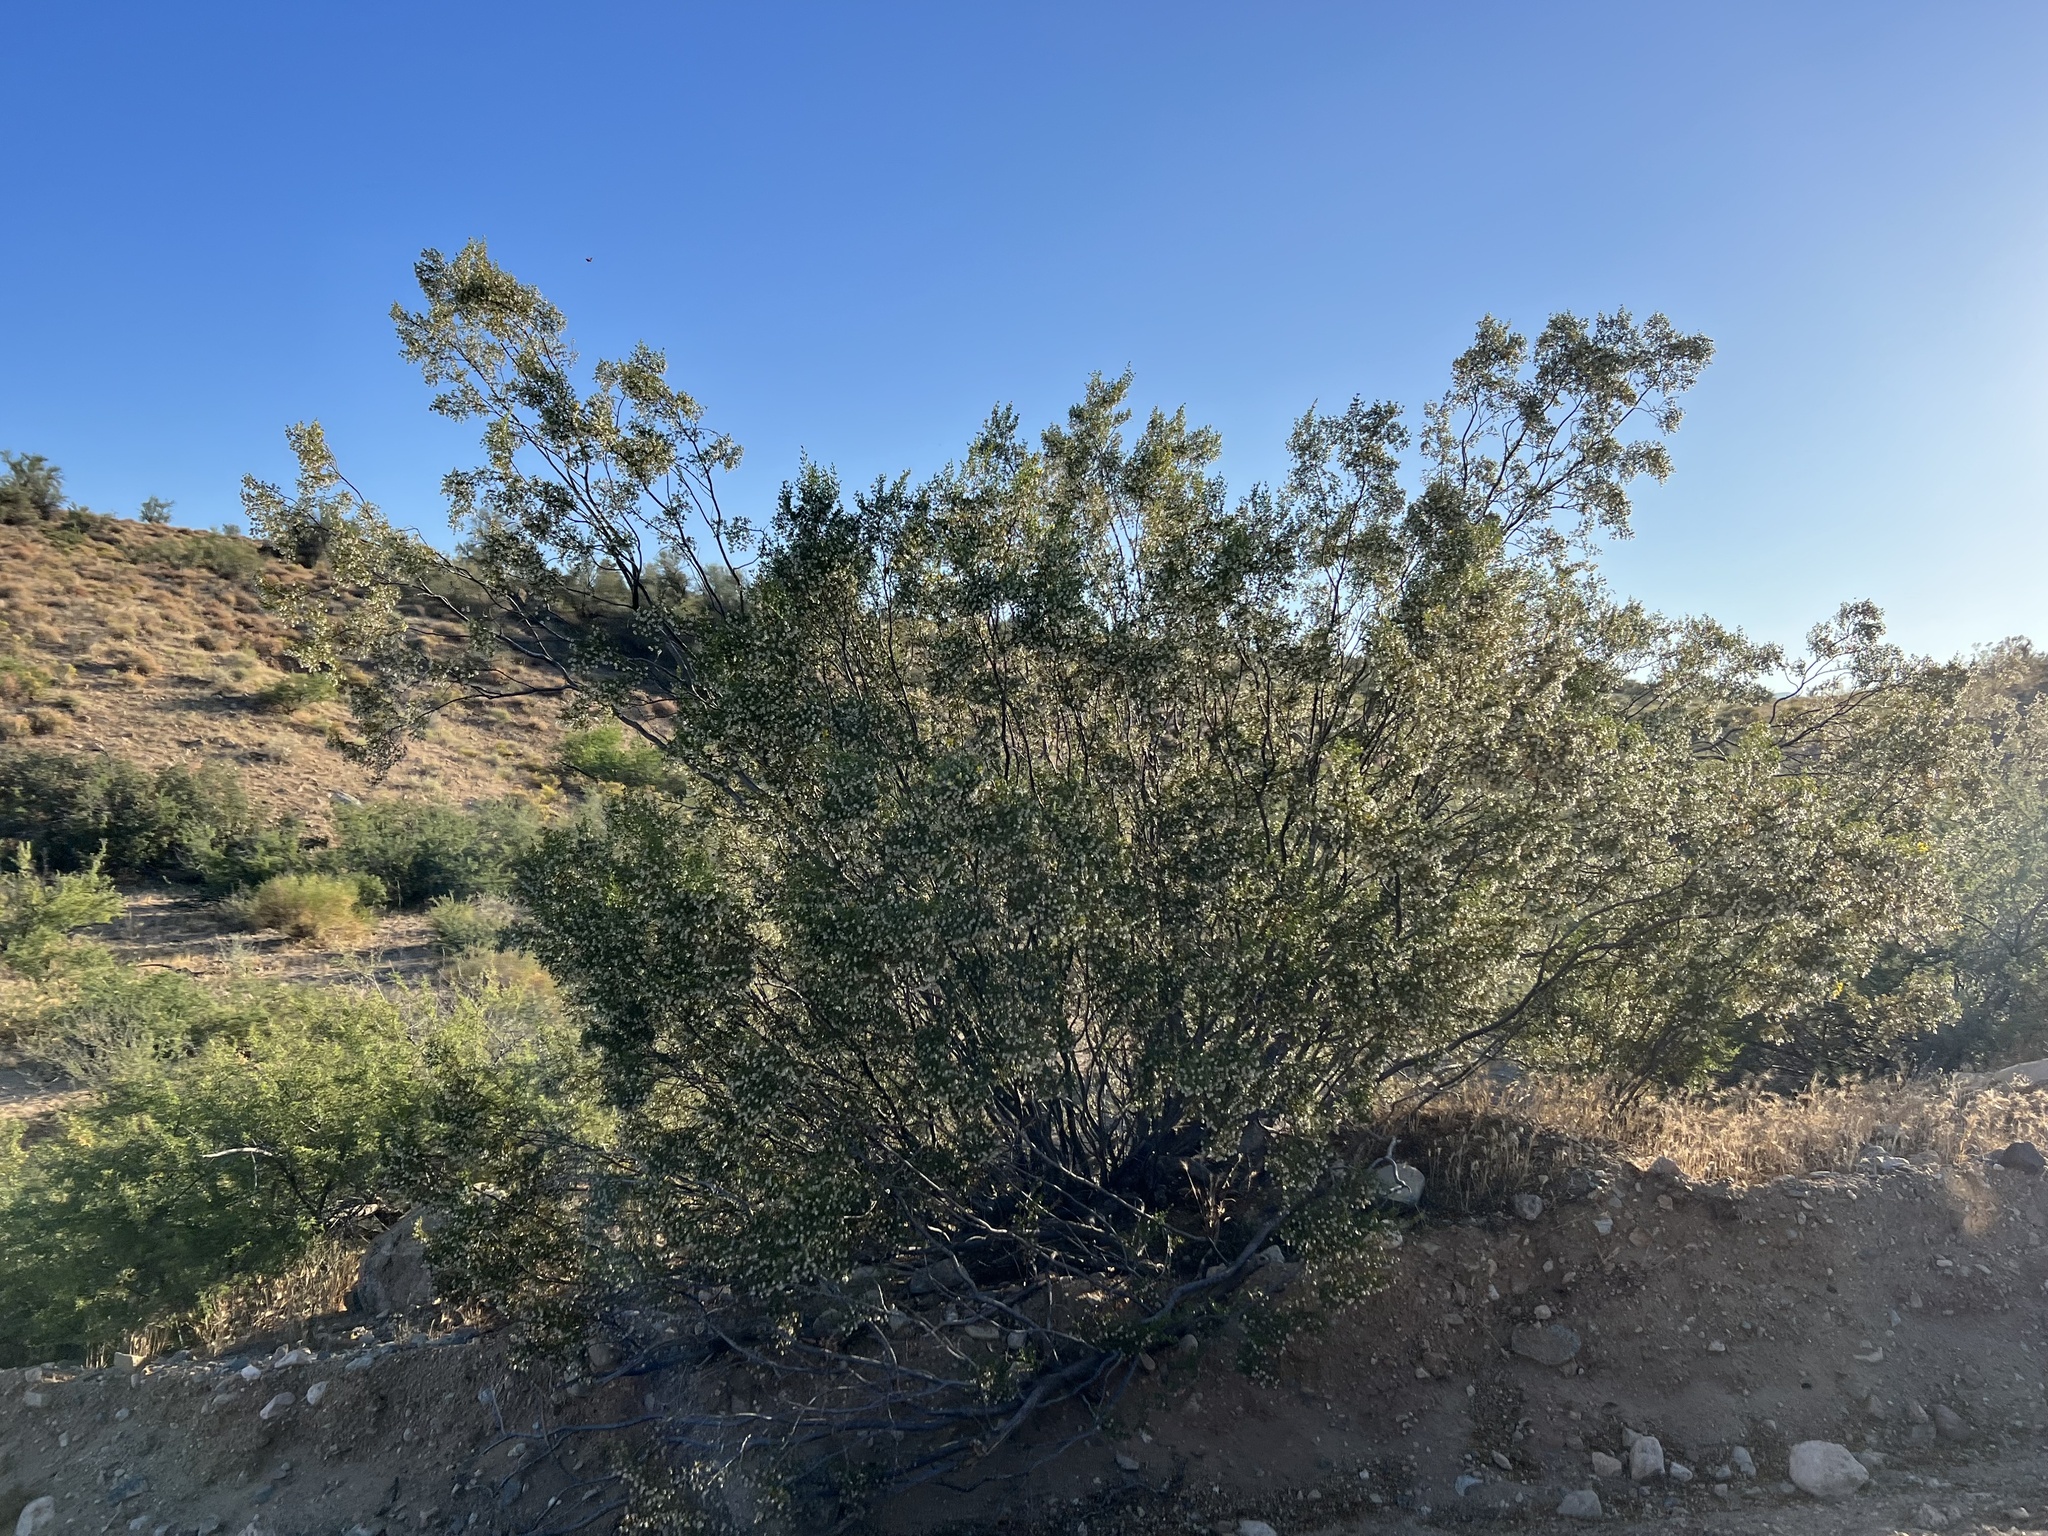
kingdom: Plantae
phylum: Tracheophyta
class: Magnoliopsida
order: Zygophyllales
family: Zygophyllaceae
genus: Larrea
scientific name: Larrea tridentata
